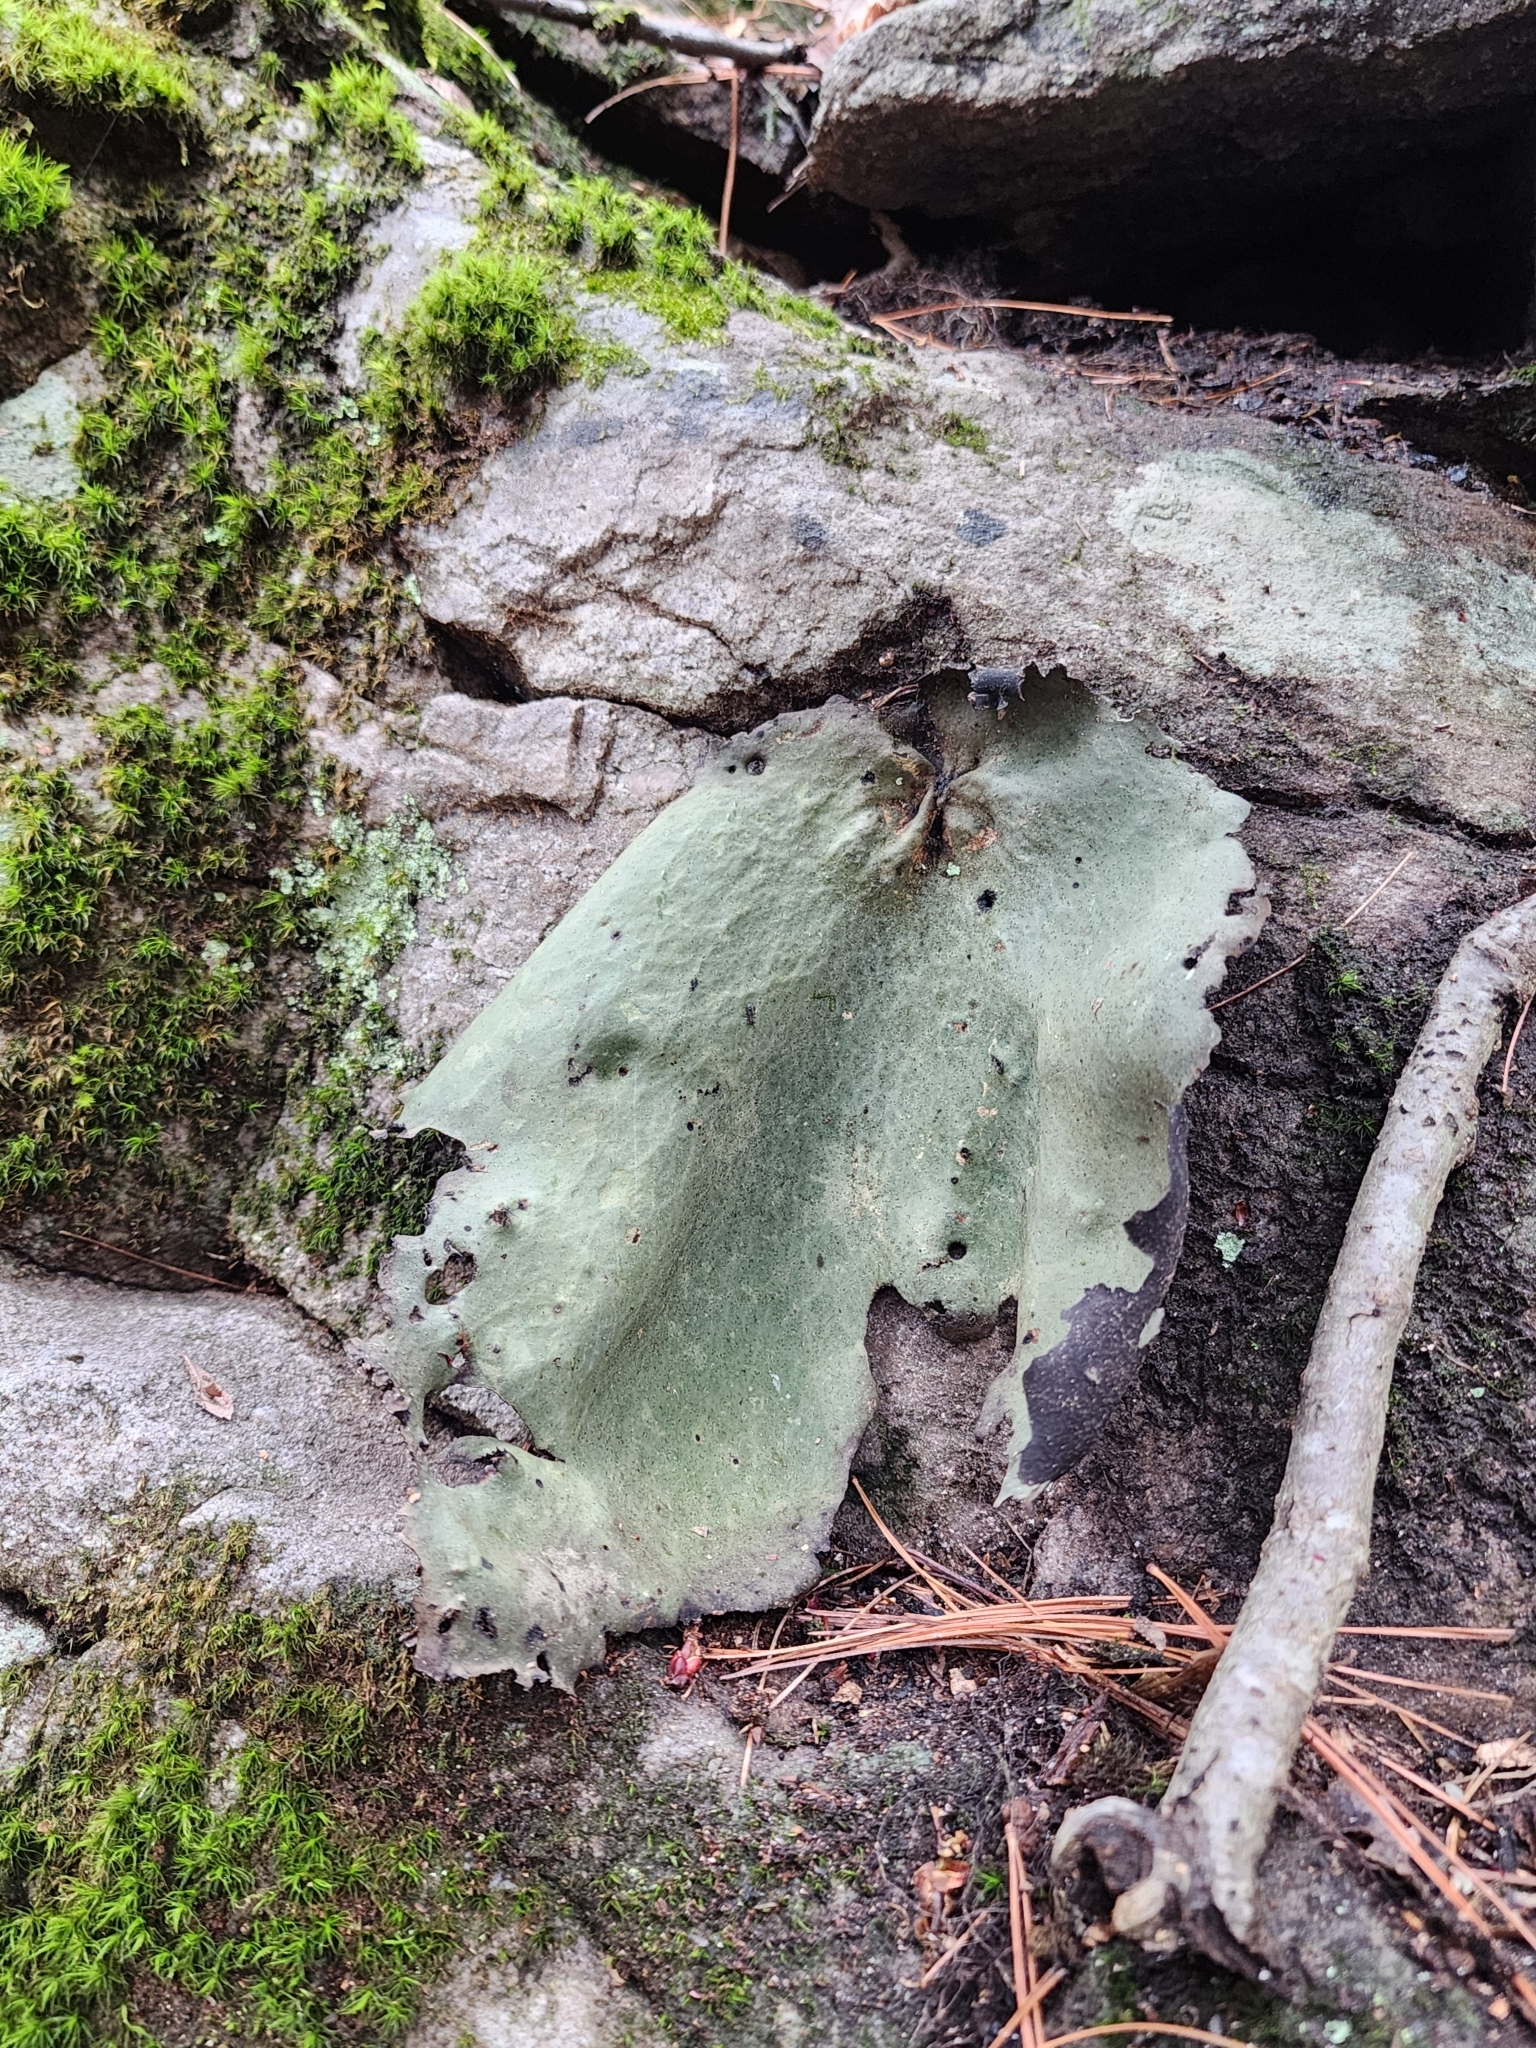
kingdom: Fungi
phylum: Ascomycota
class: Lecanoromycetes
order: Umbilicariales
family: Umbilicariaceae
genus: Umbilicaria
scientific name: Umbilicaria mammulata
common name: Smooth rock tripe
